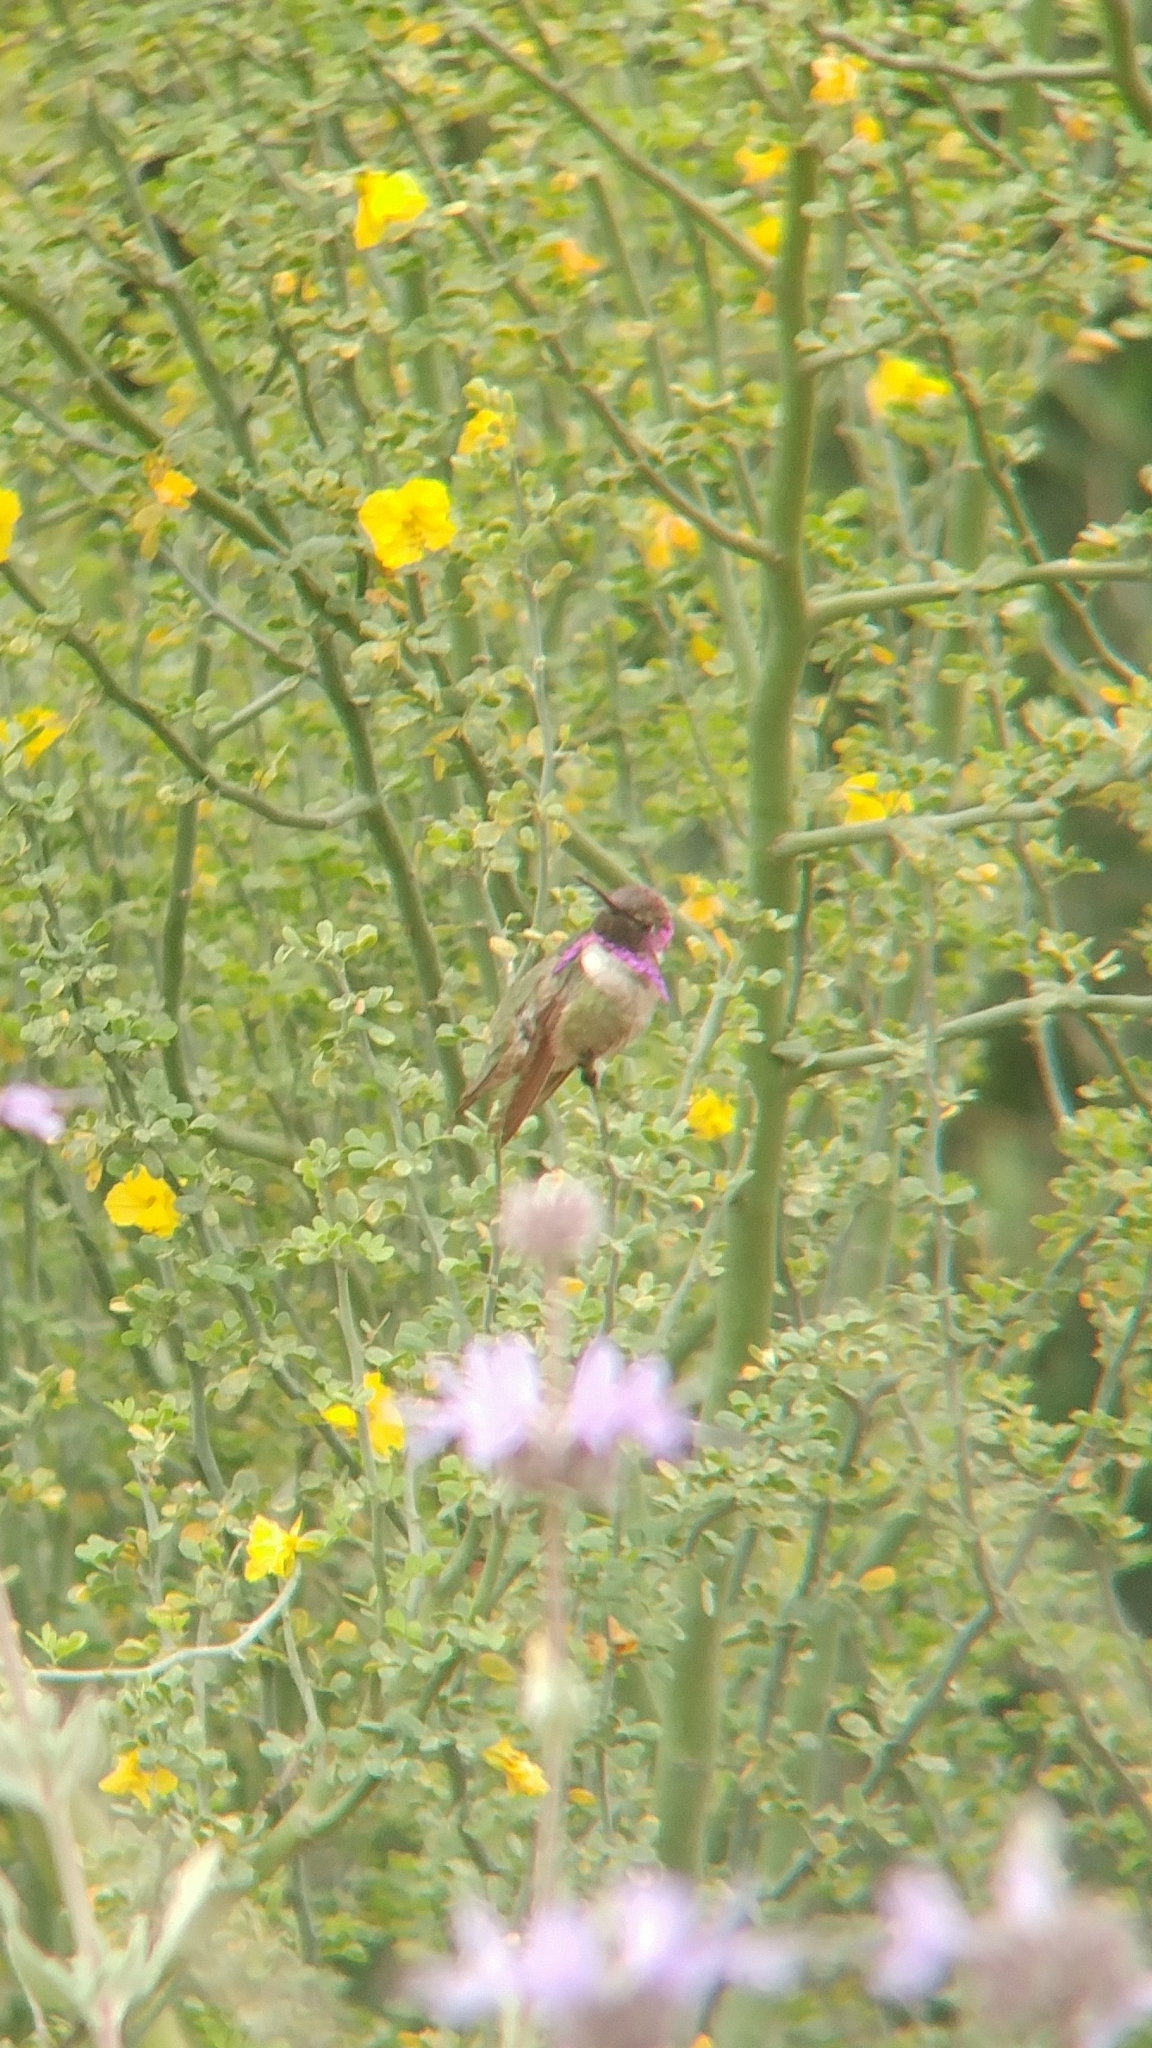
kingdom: Animalia
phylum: Chordata
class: Aves
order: Apodiformes
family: Trochilidae
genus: Calypte
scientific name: Calypte costae
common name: Costa's hummingbird
